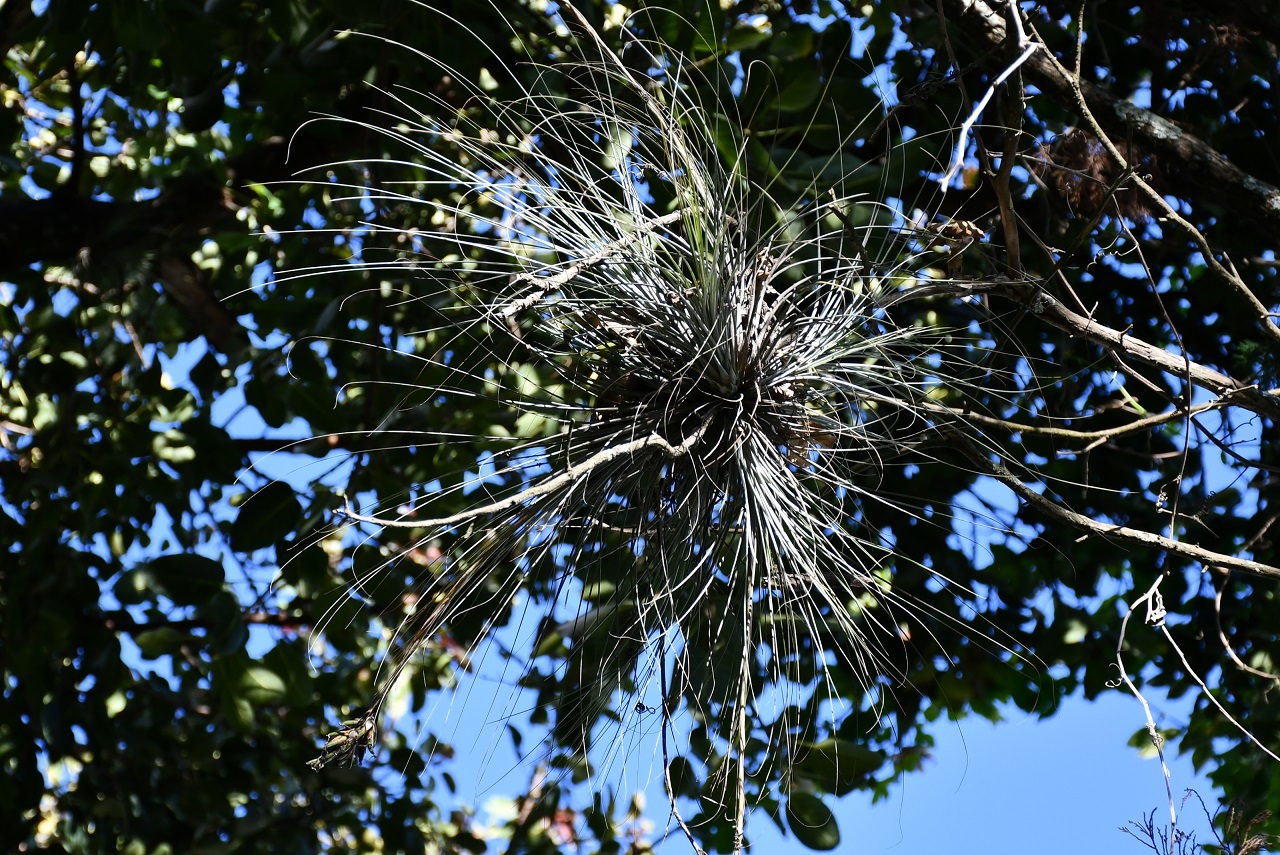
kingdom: Plantae
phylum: Tracheophyta
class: Liliopsida
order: Poales
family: Bromeliaceae
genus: Tillandsia
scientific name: Tillandsia juncea
